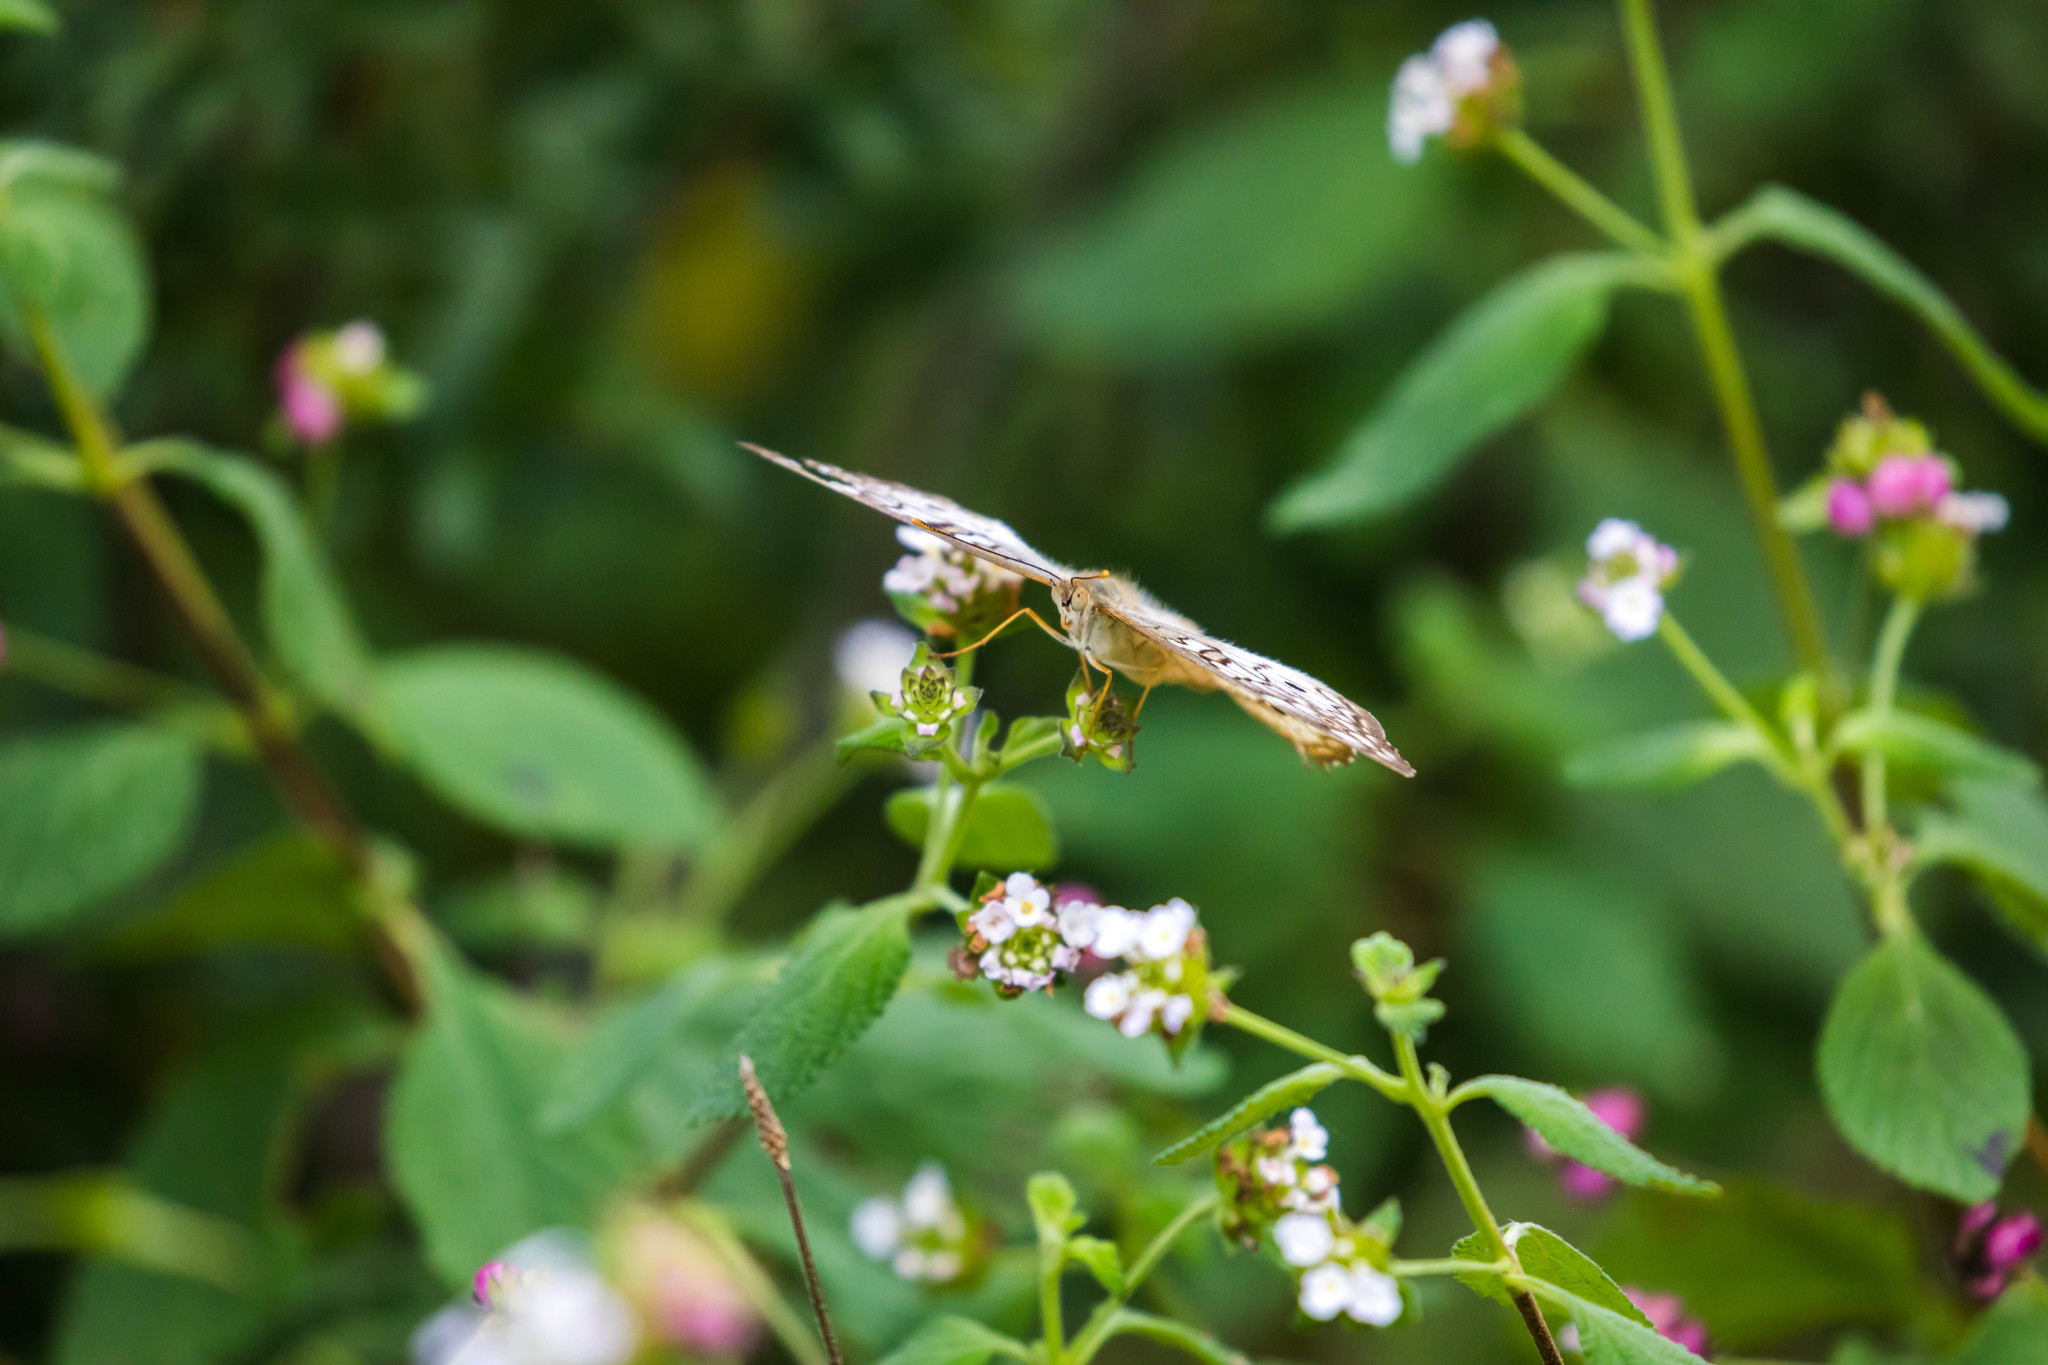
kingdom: Animalia
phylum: Arthropoda
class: Insecta
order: Lepidoptera
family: Nymphalidae
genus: Anartia
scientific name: Anartia jatrophae
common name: White peacock
